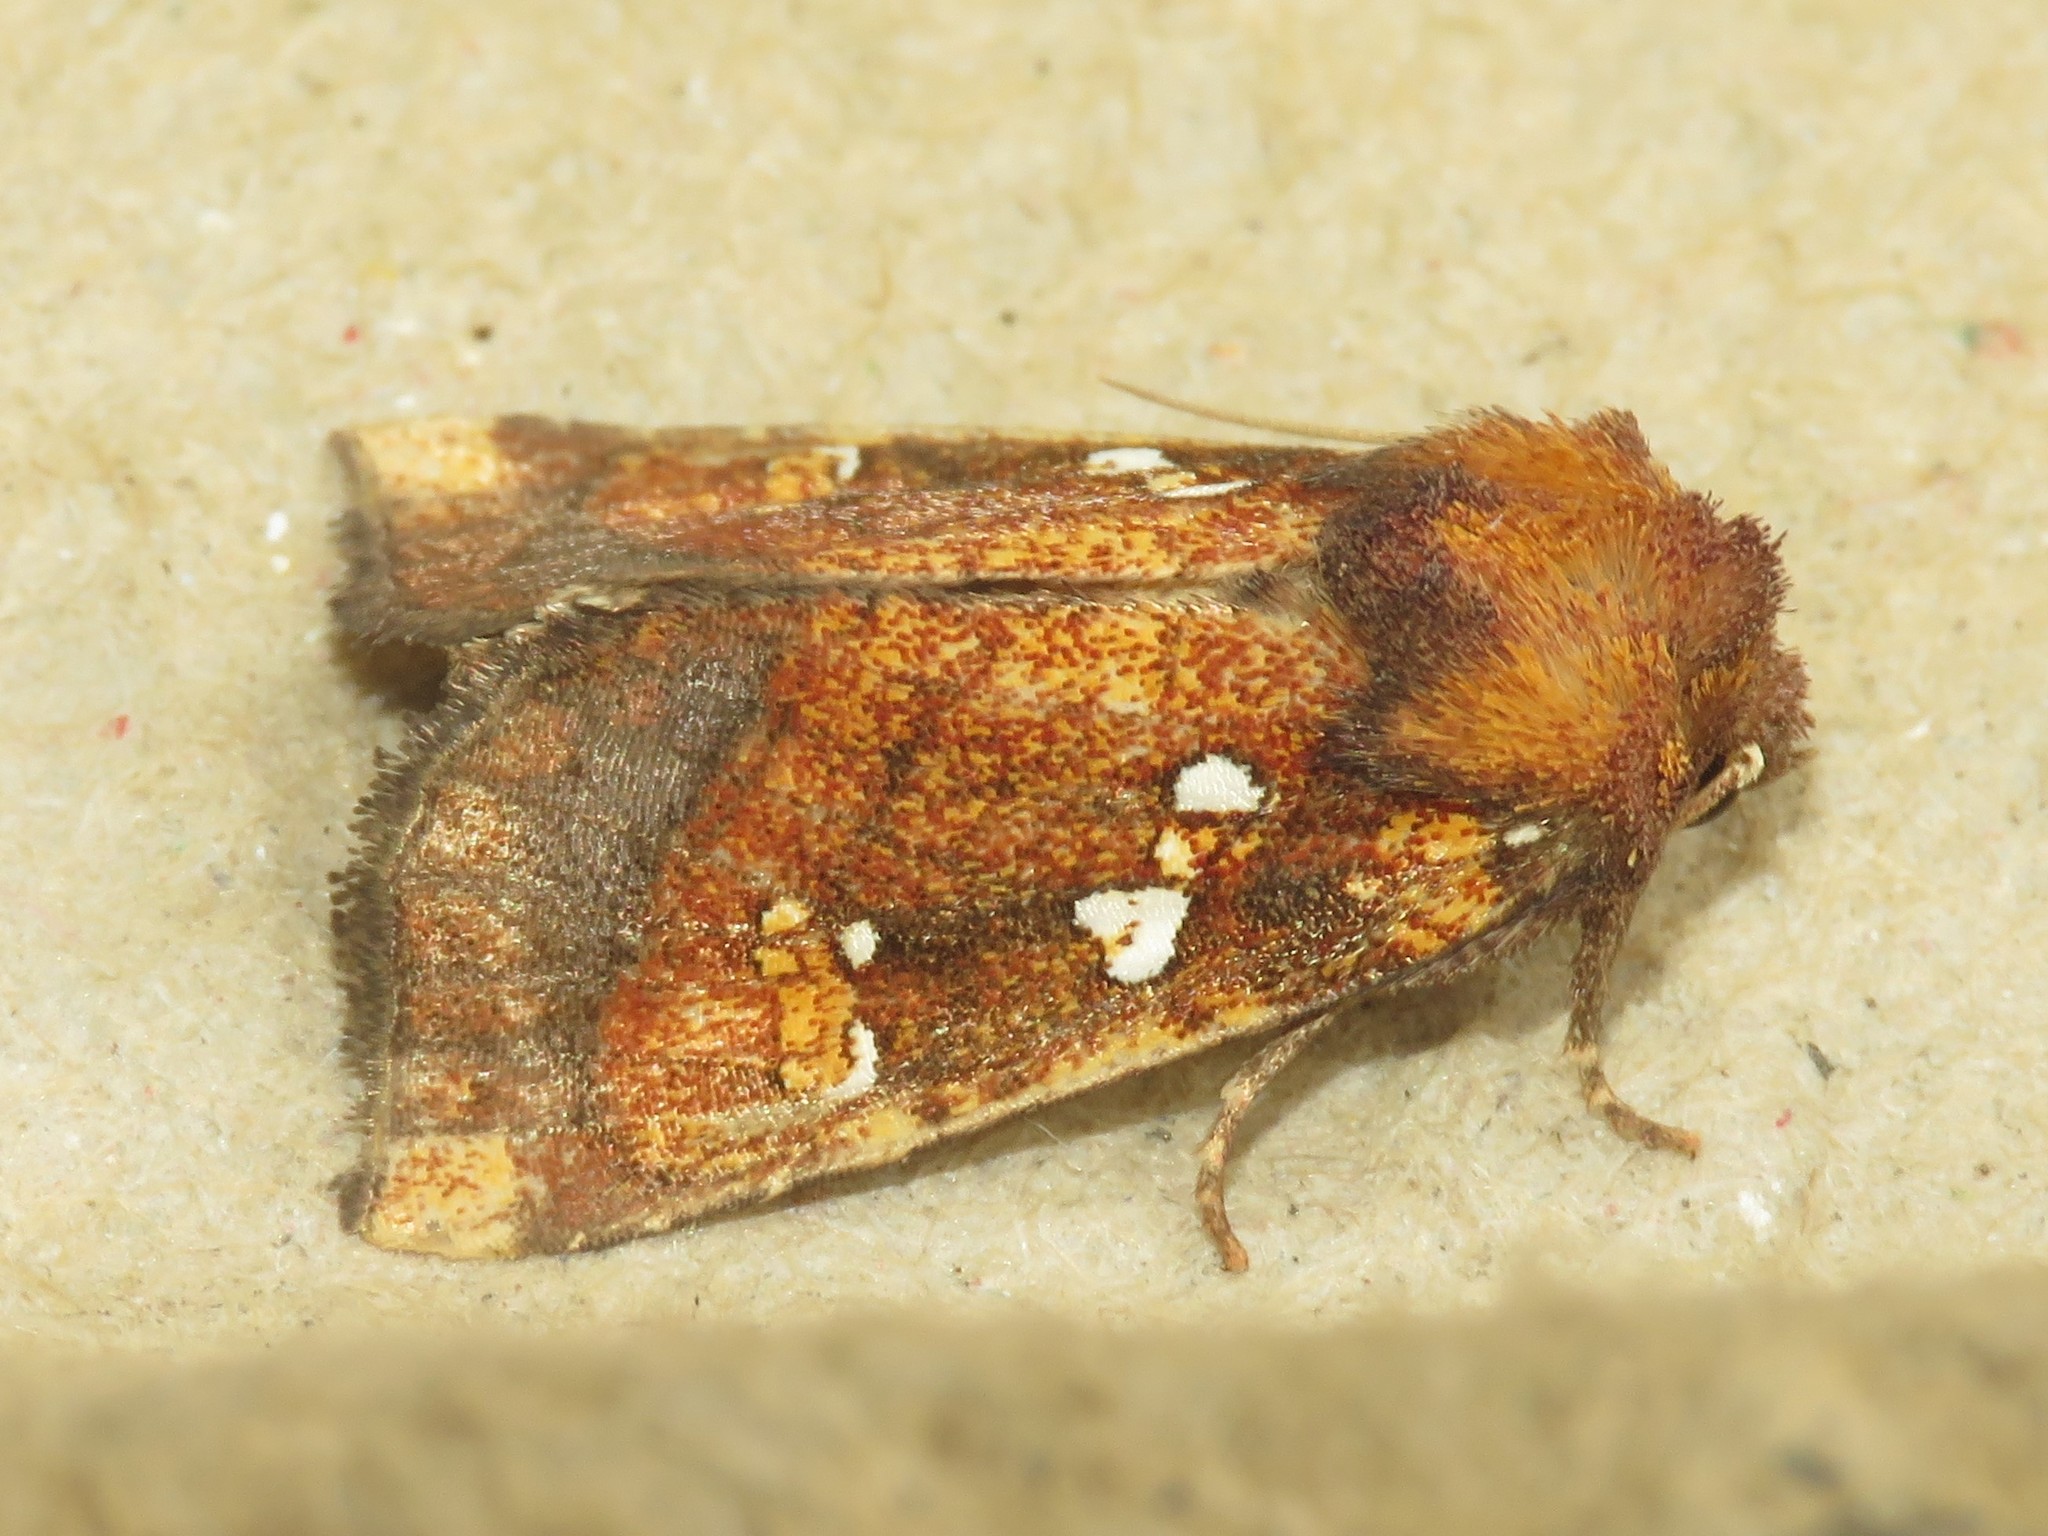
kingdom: Animalia
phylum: Arthropoda
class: Insecta
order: Lepidoptera
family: Noctuidae
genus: Papaipema
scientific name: Papaipema arctivorens
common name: Northern burdock borer moth
